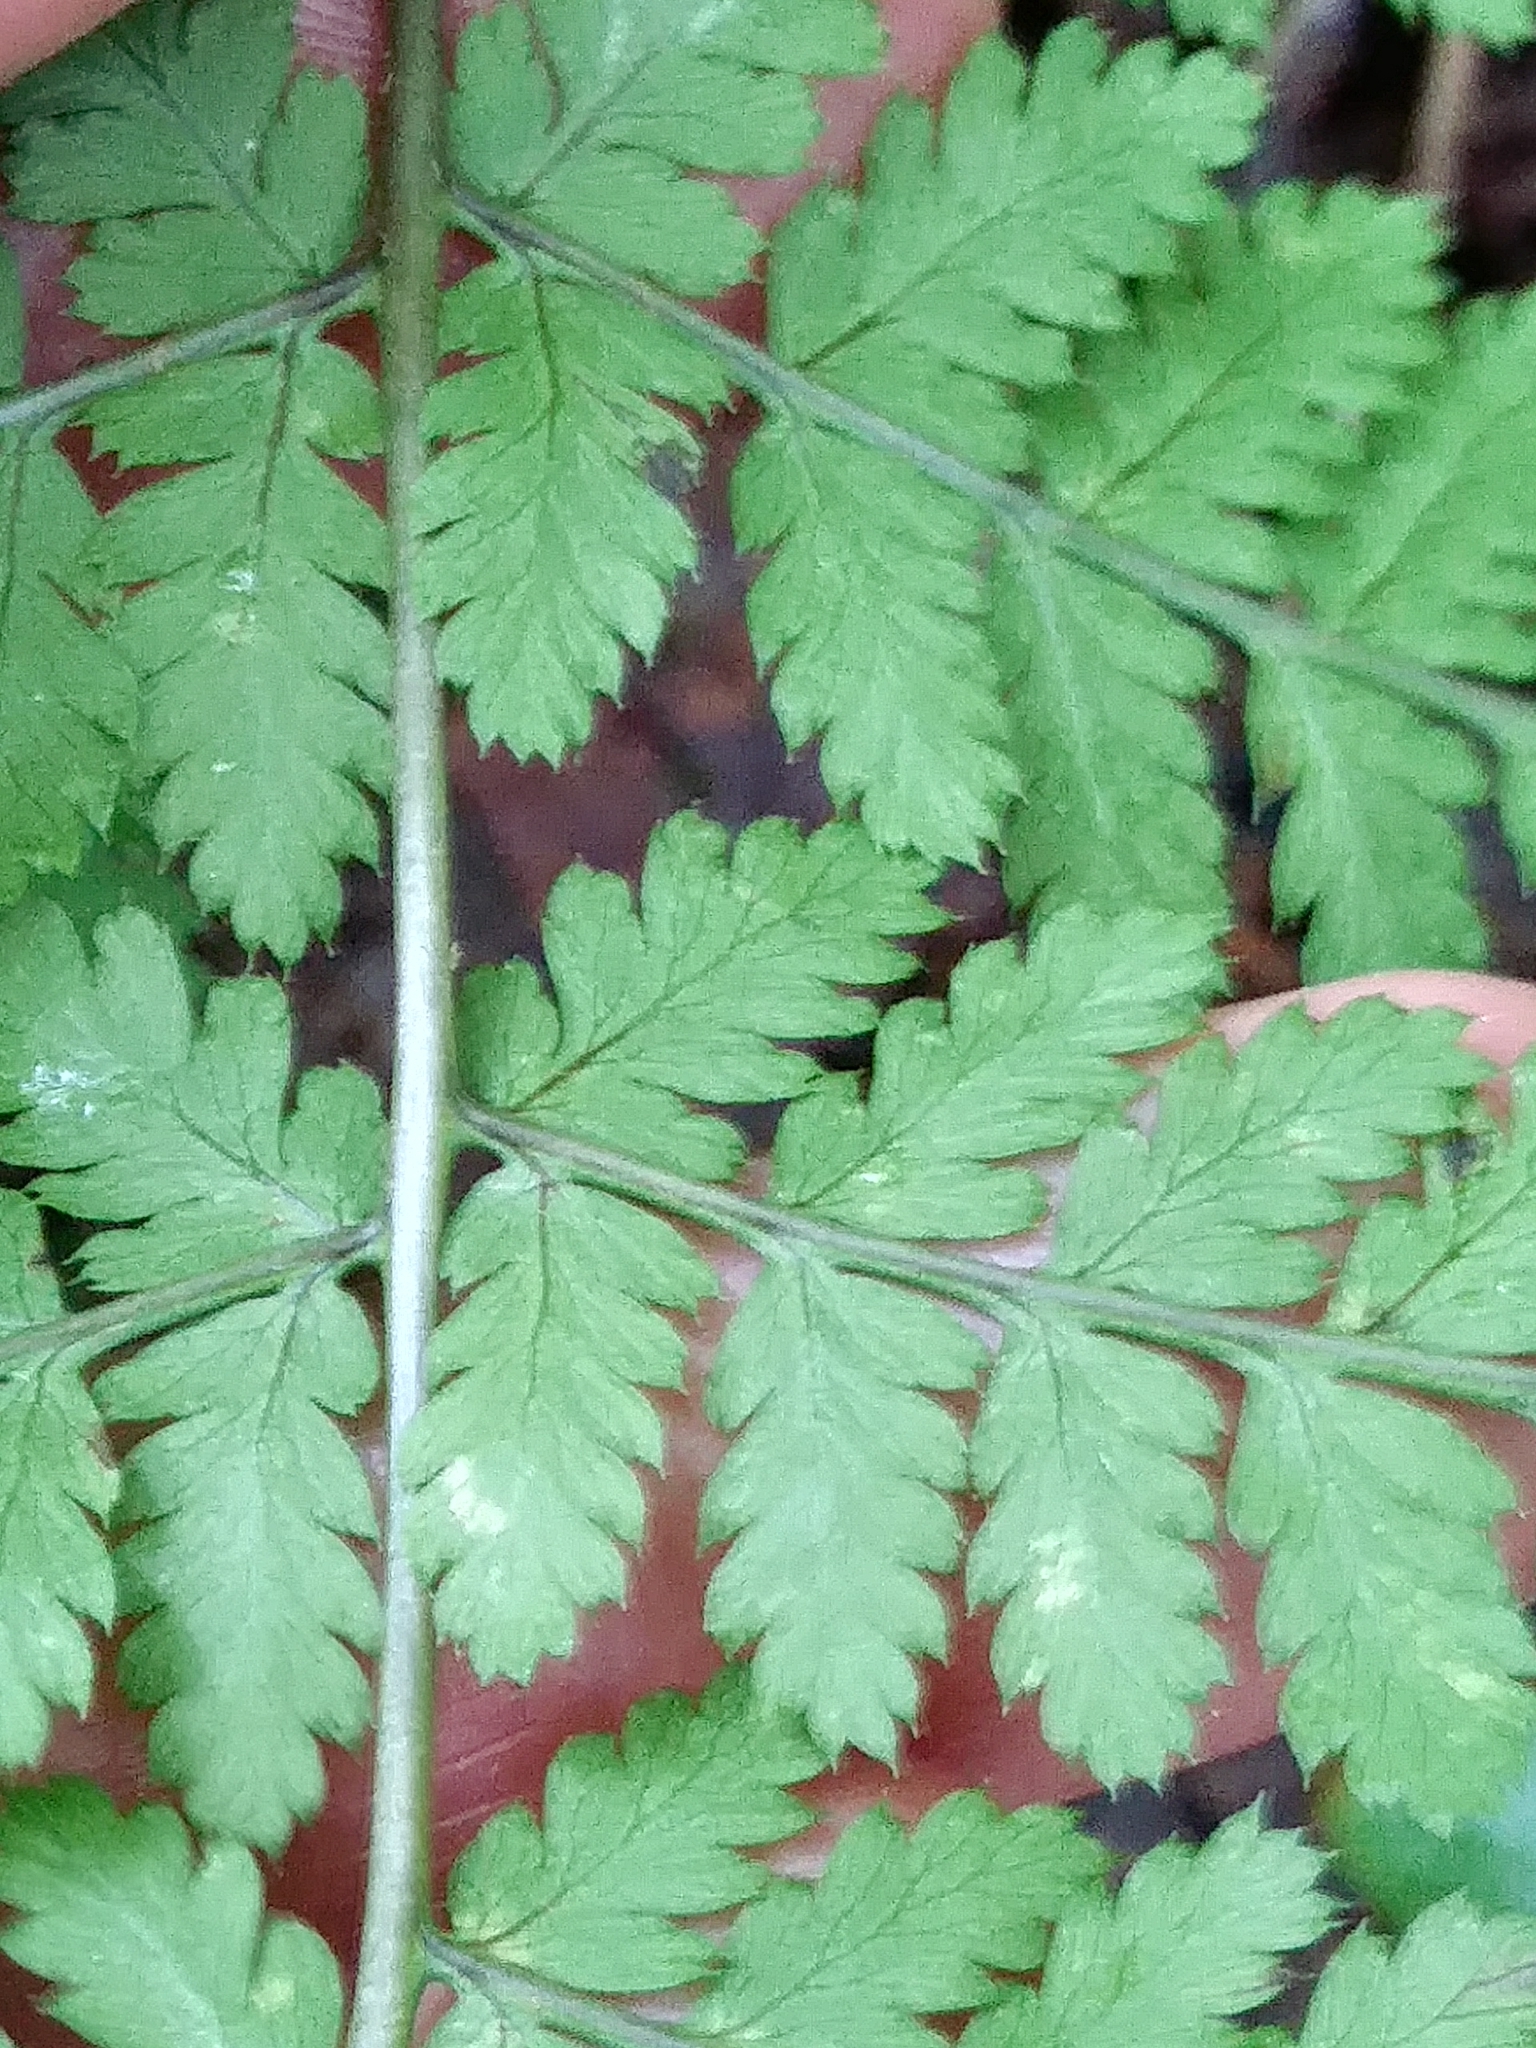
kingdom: Plantae
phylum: Tracheophyta
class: Polypodiopsida
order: Polypodiales
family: Dryopteridaceae
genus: Dryopteris
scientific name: Dryopteris campyloptera
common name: Mountain wood fern
